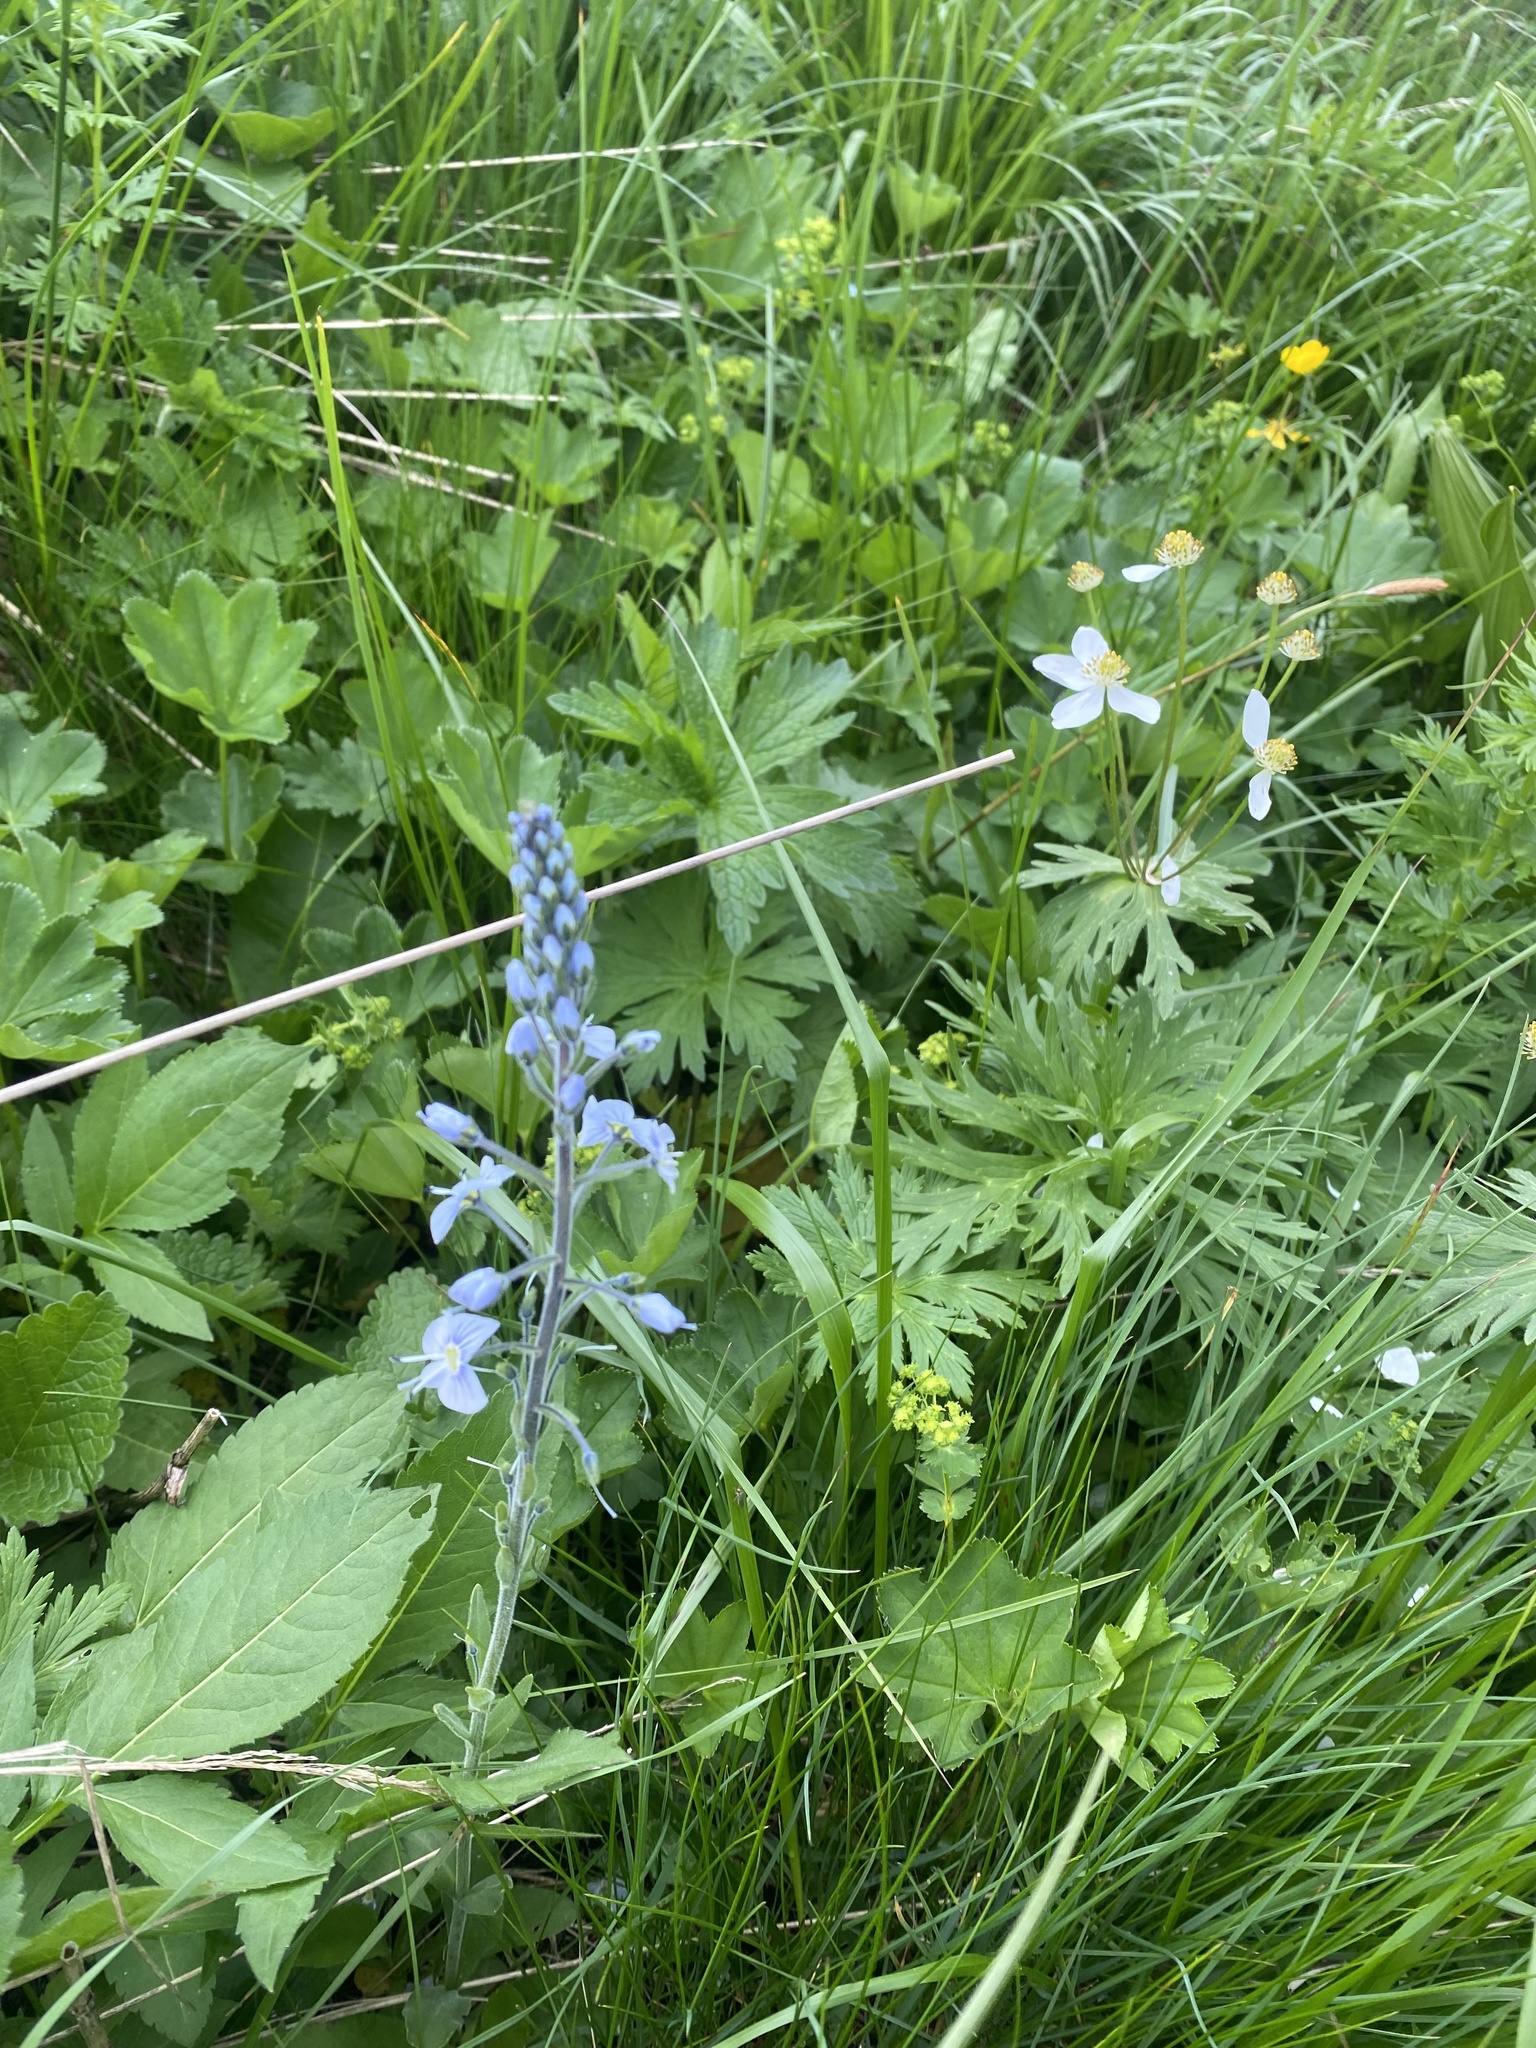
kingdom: Plantae
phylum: Tracheophyta
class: Magnoliopsida
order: Lamiales
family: Plantaginaceae
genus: Veronica
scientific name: Veronica gentianoides
